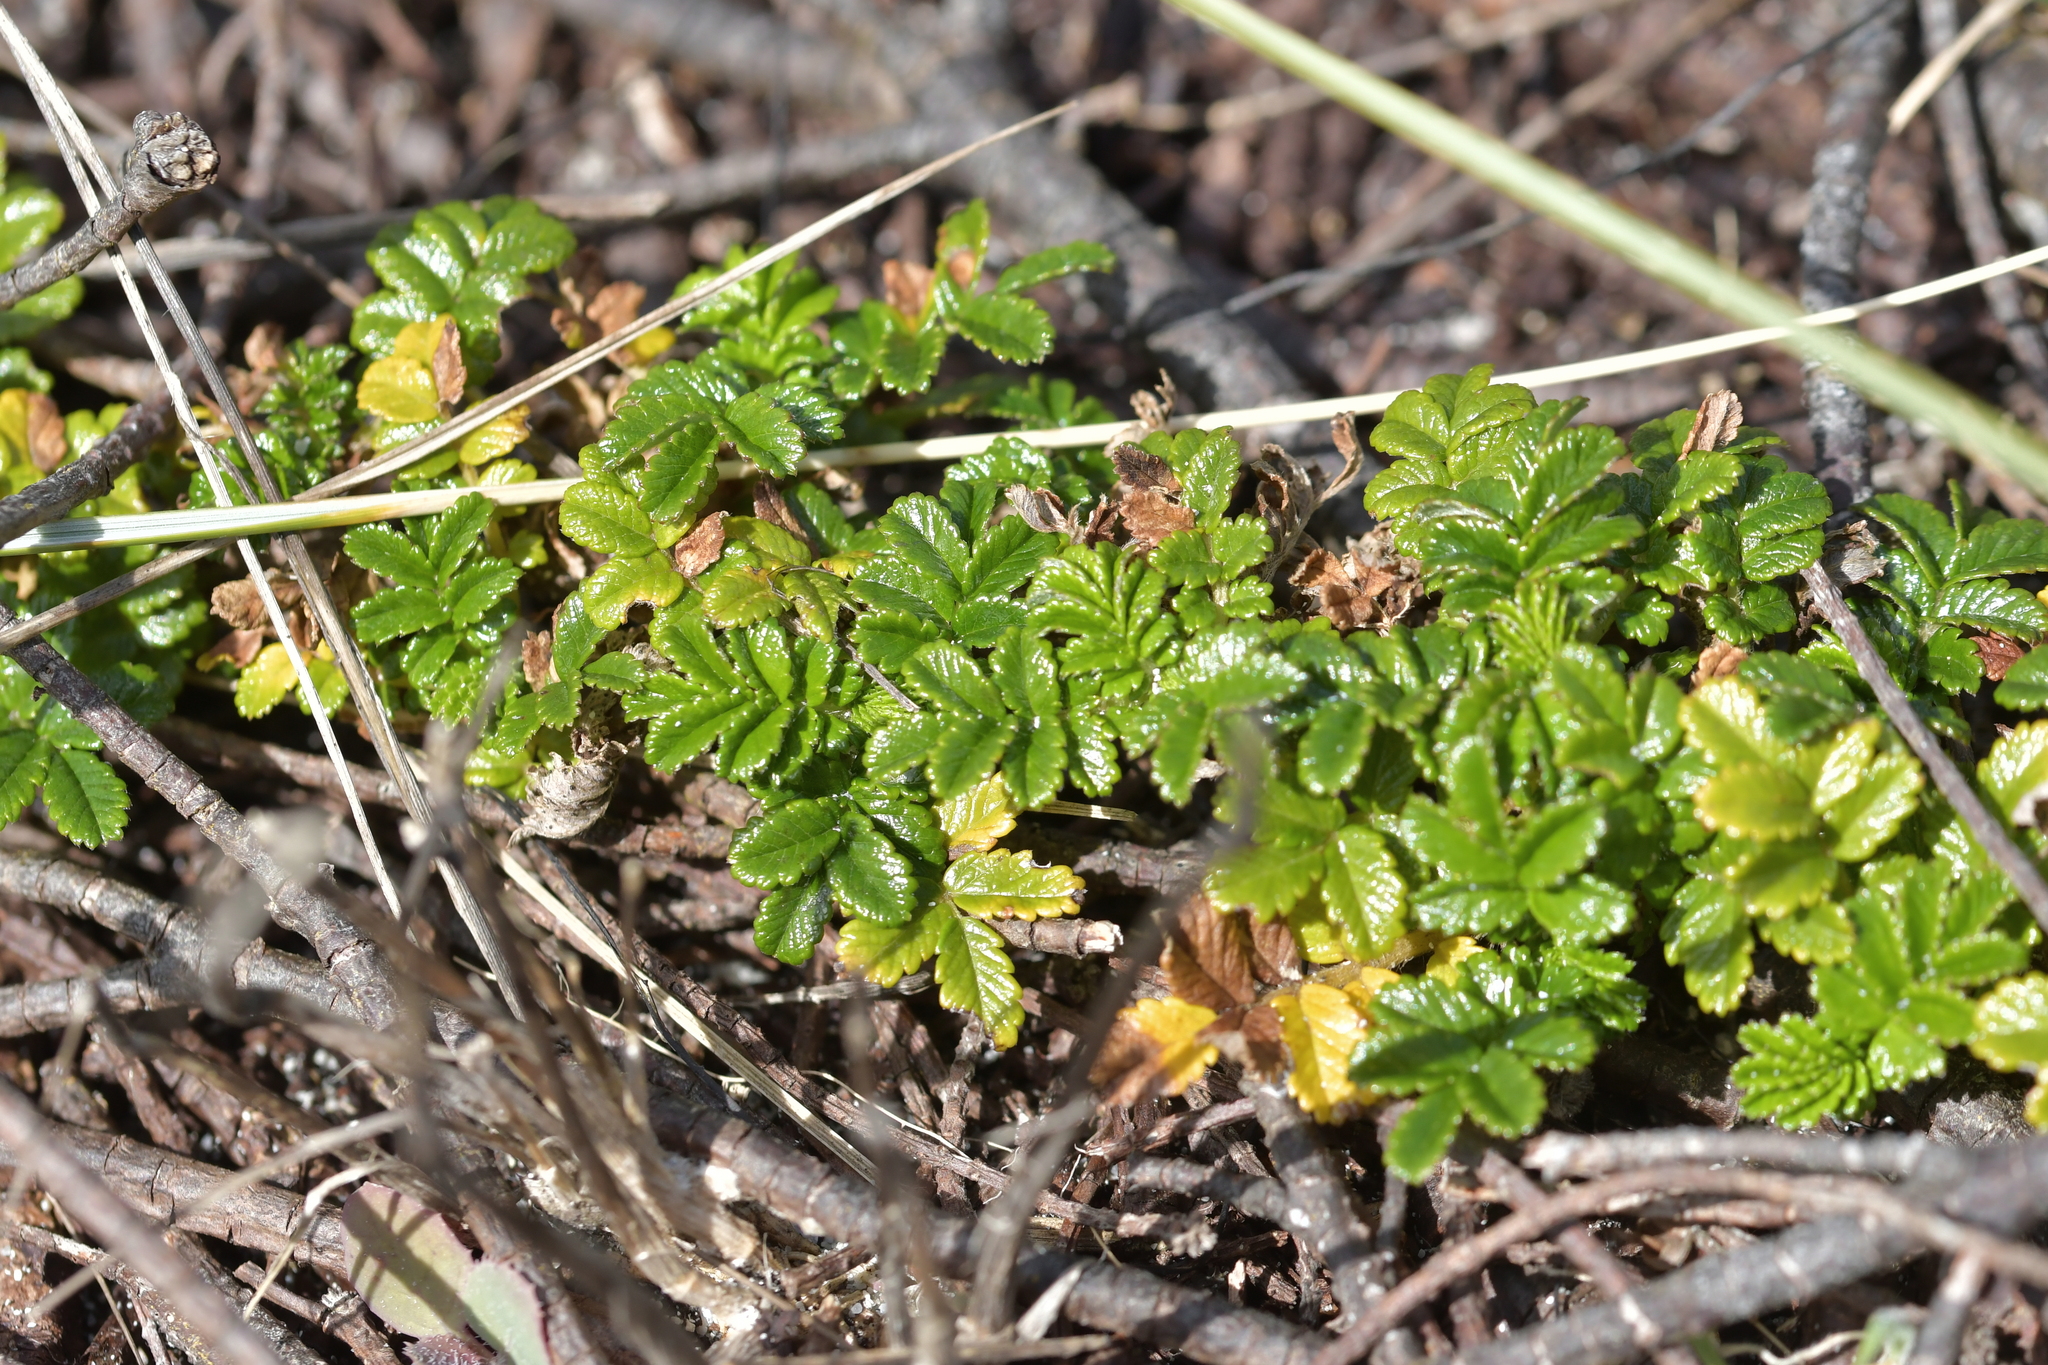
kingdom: Plantae
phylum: Tracheophyta
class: Magnoliopsida
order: Rosales
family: Rosaceae
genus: Acaena
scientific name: Acaena pallida
